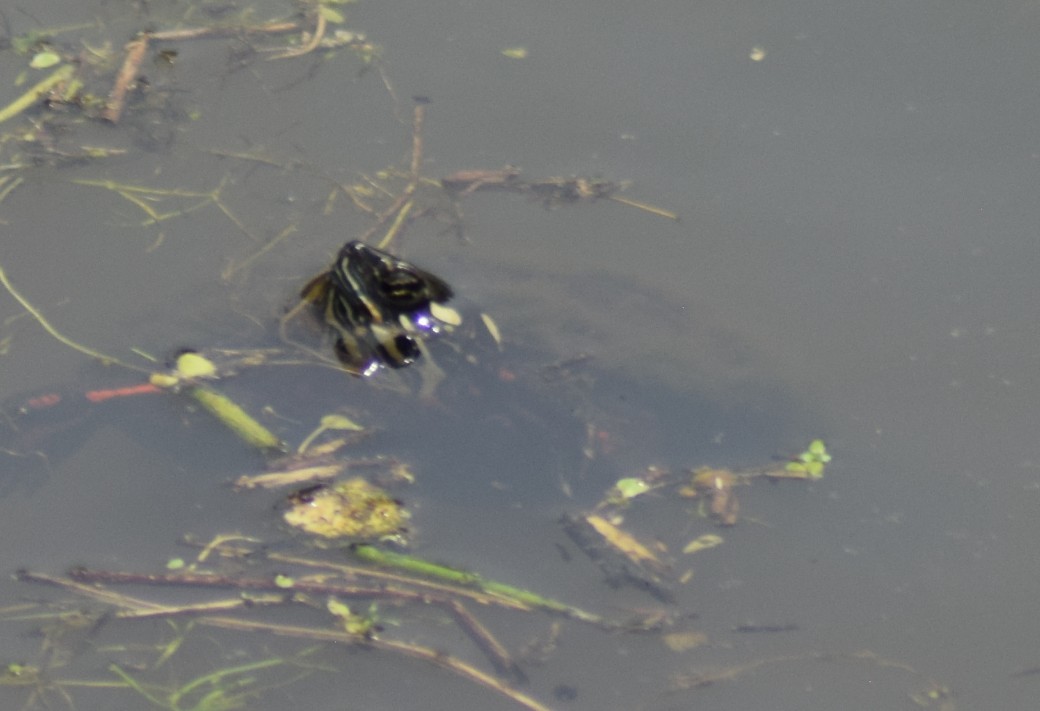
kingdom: Animalia
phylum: Chordata
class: Testudines
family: Emydidae
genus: Chrysemys
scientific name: Chrysemys picta
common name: Painted turtle
